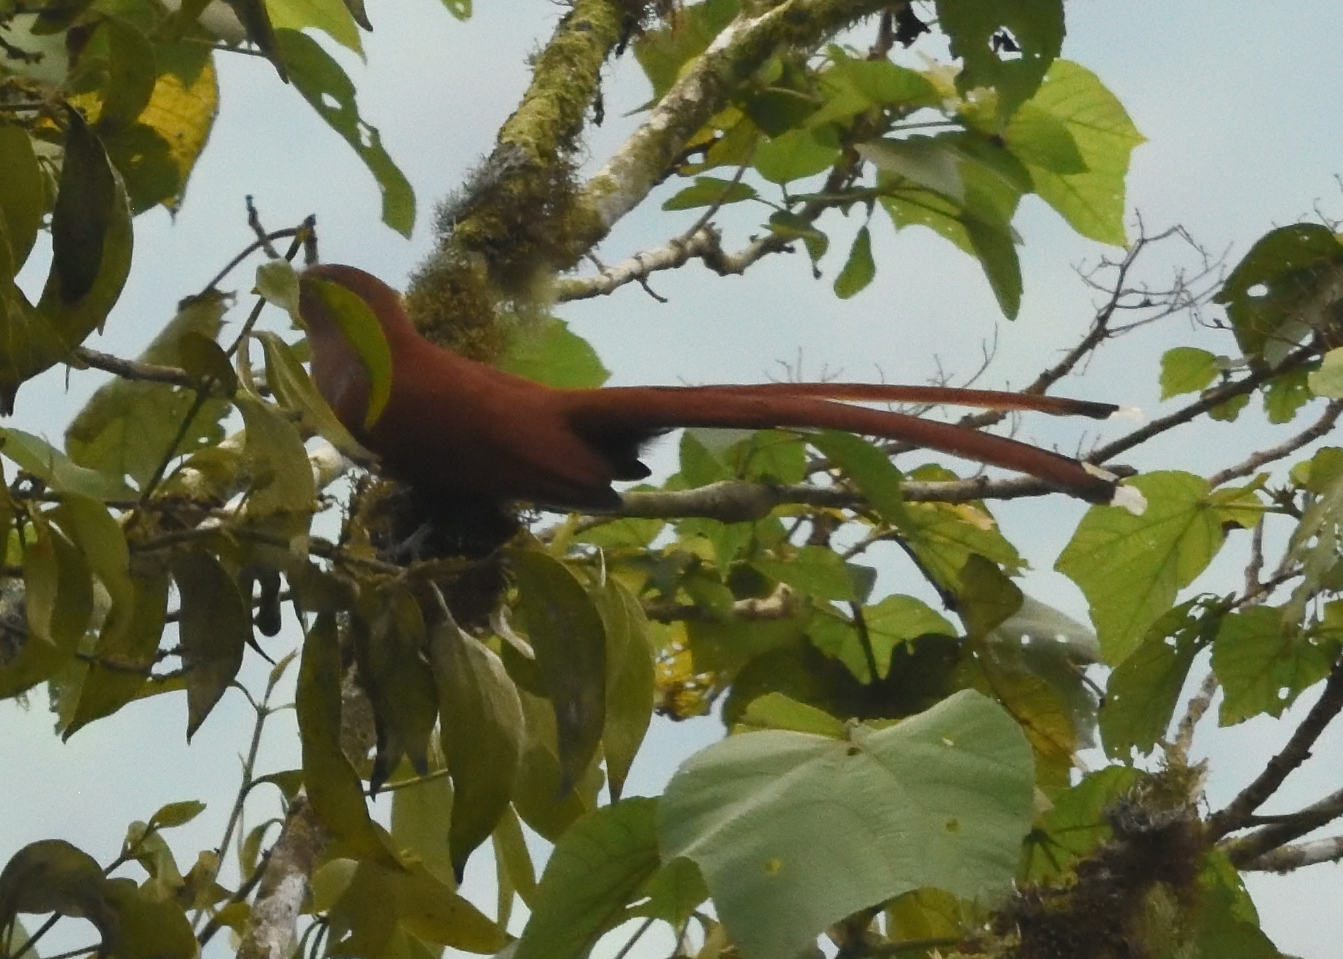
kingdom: Animalia
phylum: Chordata
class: Aves
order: Cuculiformes
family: Cuculidae
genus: Piaya
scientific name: Piaya cayana
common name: Squirrel cuckoo
